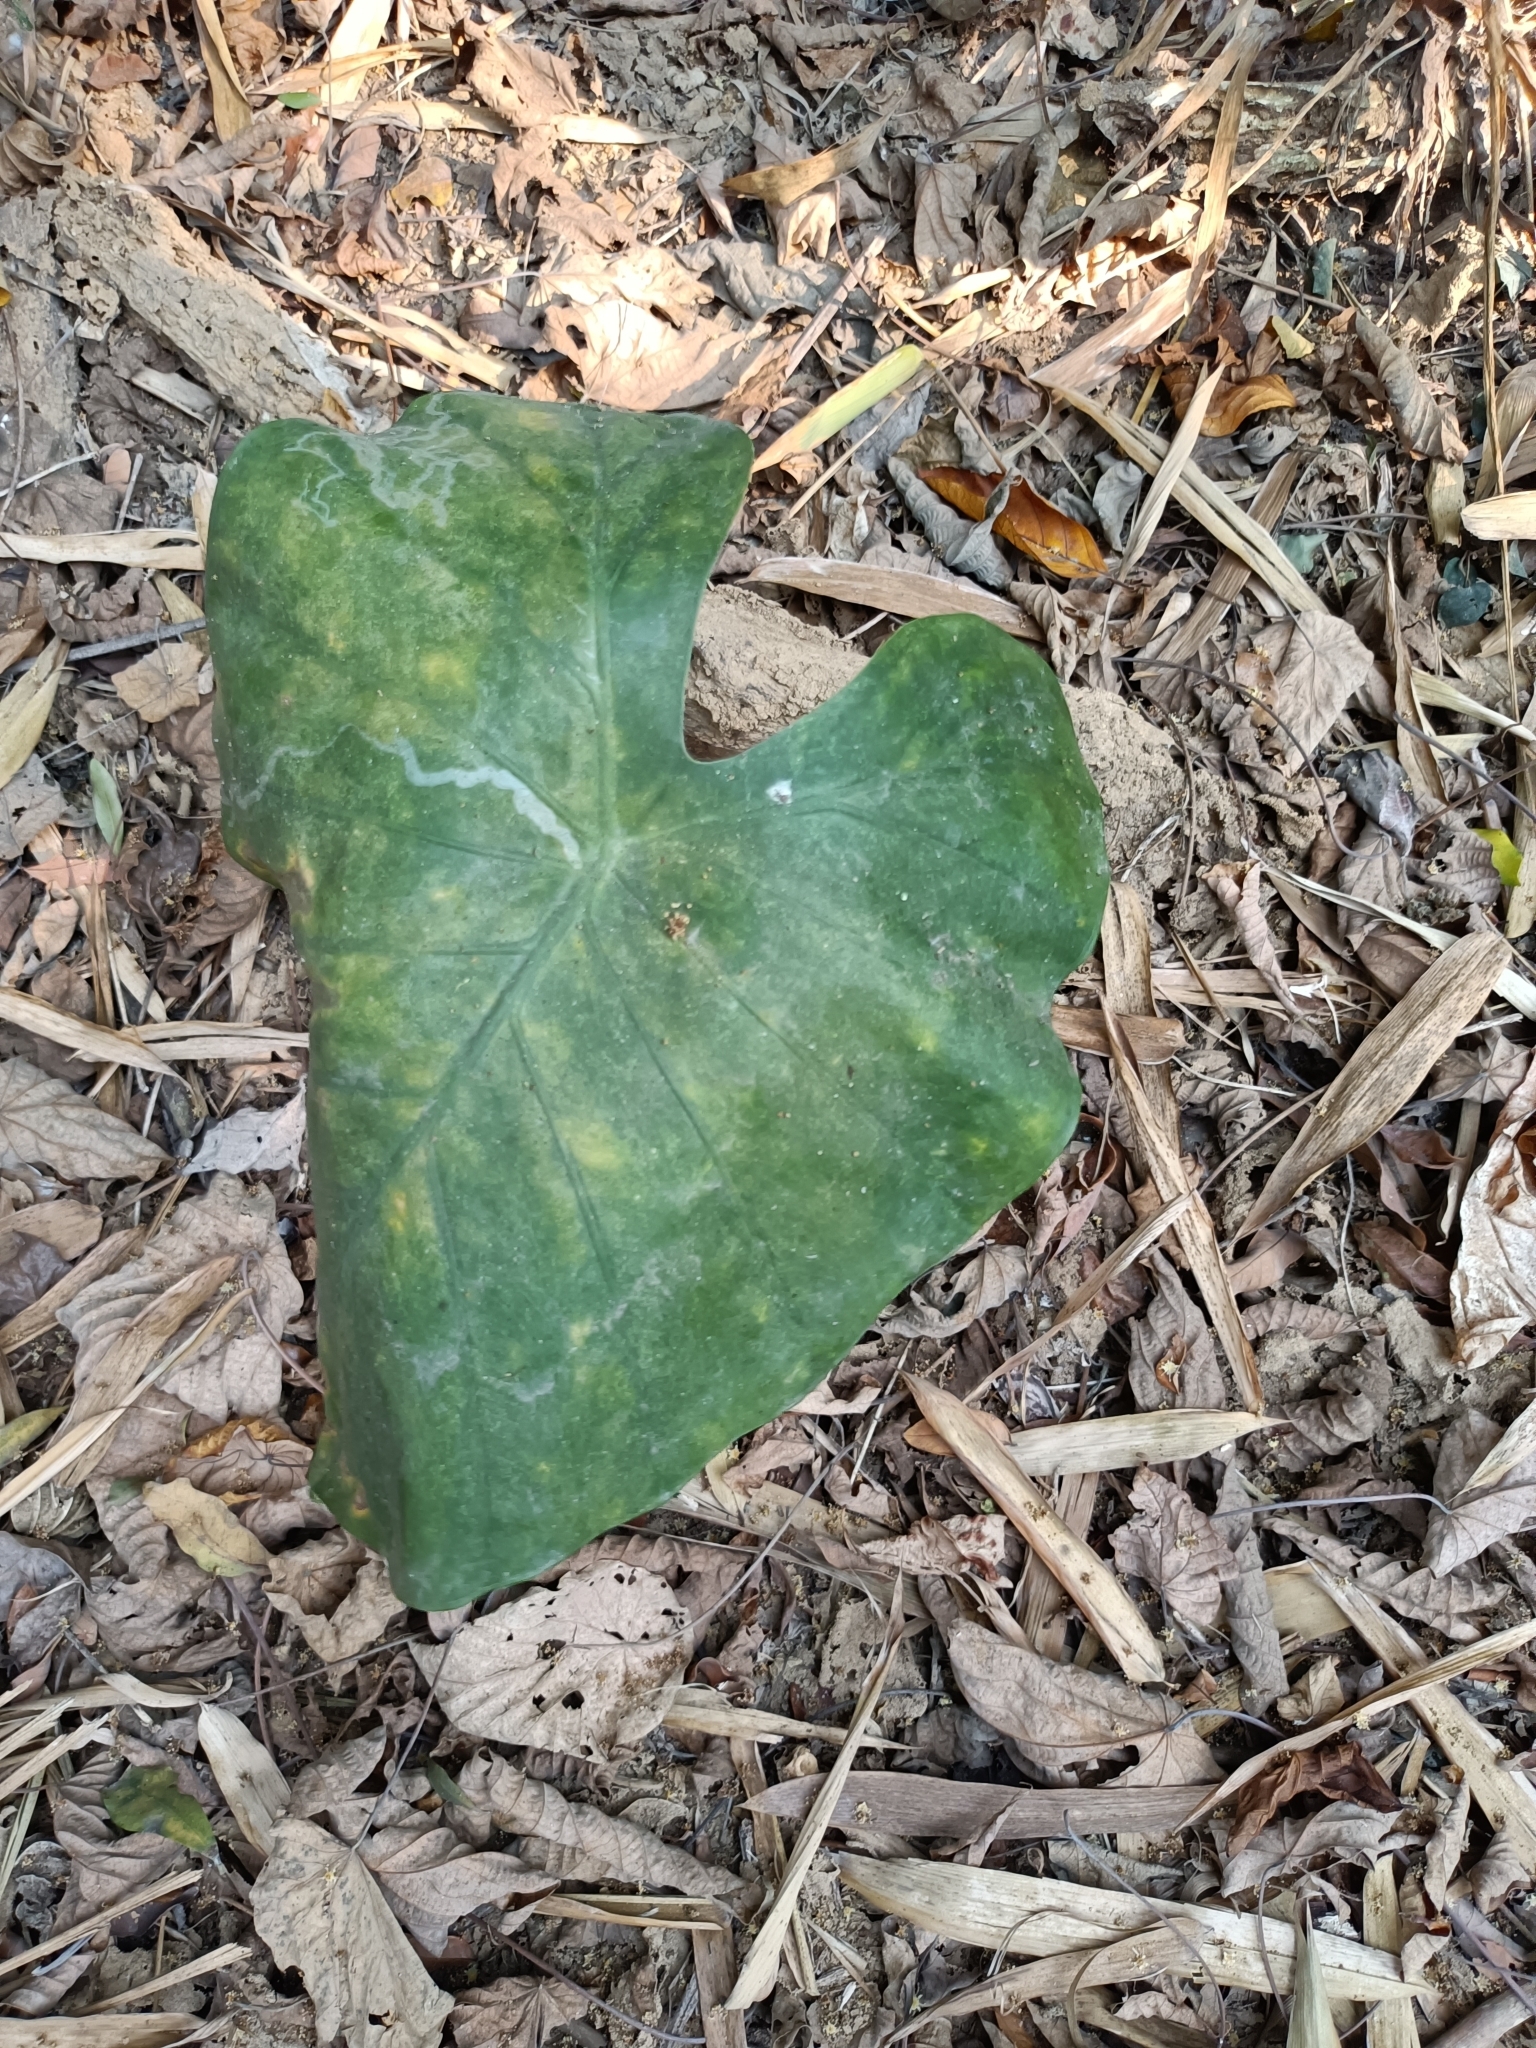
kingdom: Plantae
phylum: Tracheophyta
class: Liliopsida
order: Alismatales
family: Araceae
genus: Alocasia
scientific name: Alocasia odora
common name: Asian taro
